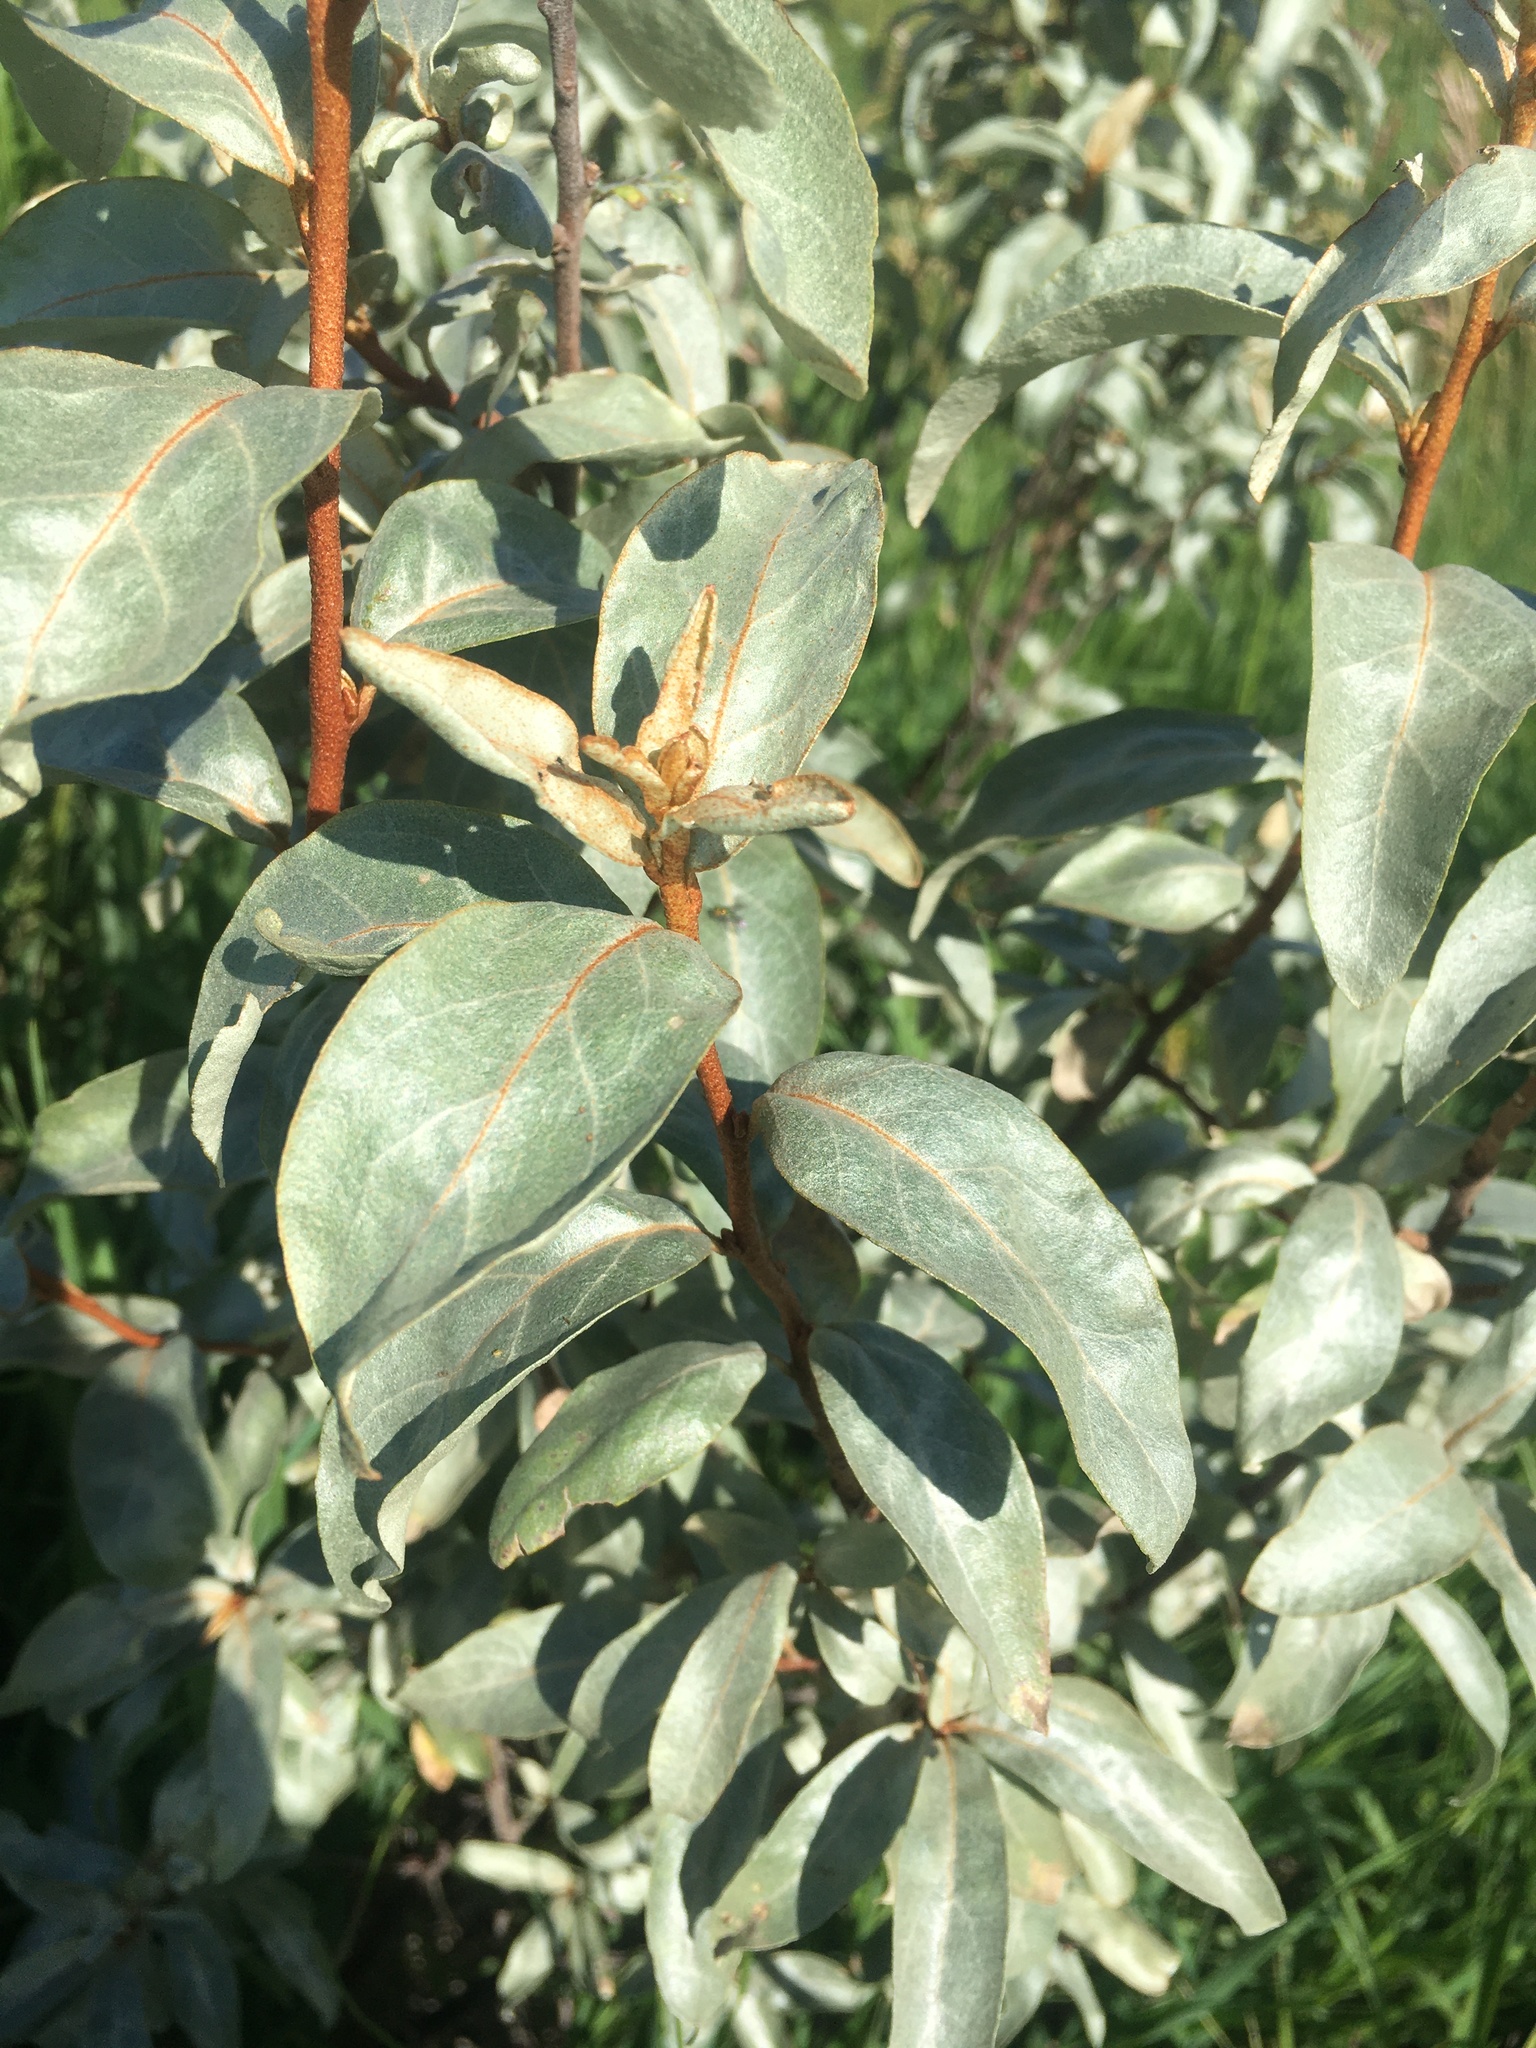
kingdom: Plantae
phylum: Tracheophyta
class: Magnoliopsida
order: Rosales
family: Elaeagnaceae
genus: Elaeagnus
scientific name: Elaeagnus commutata
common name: Silverberry
